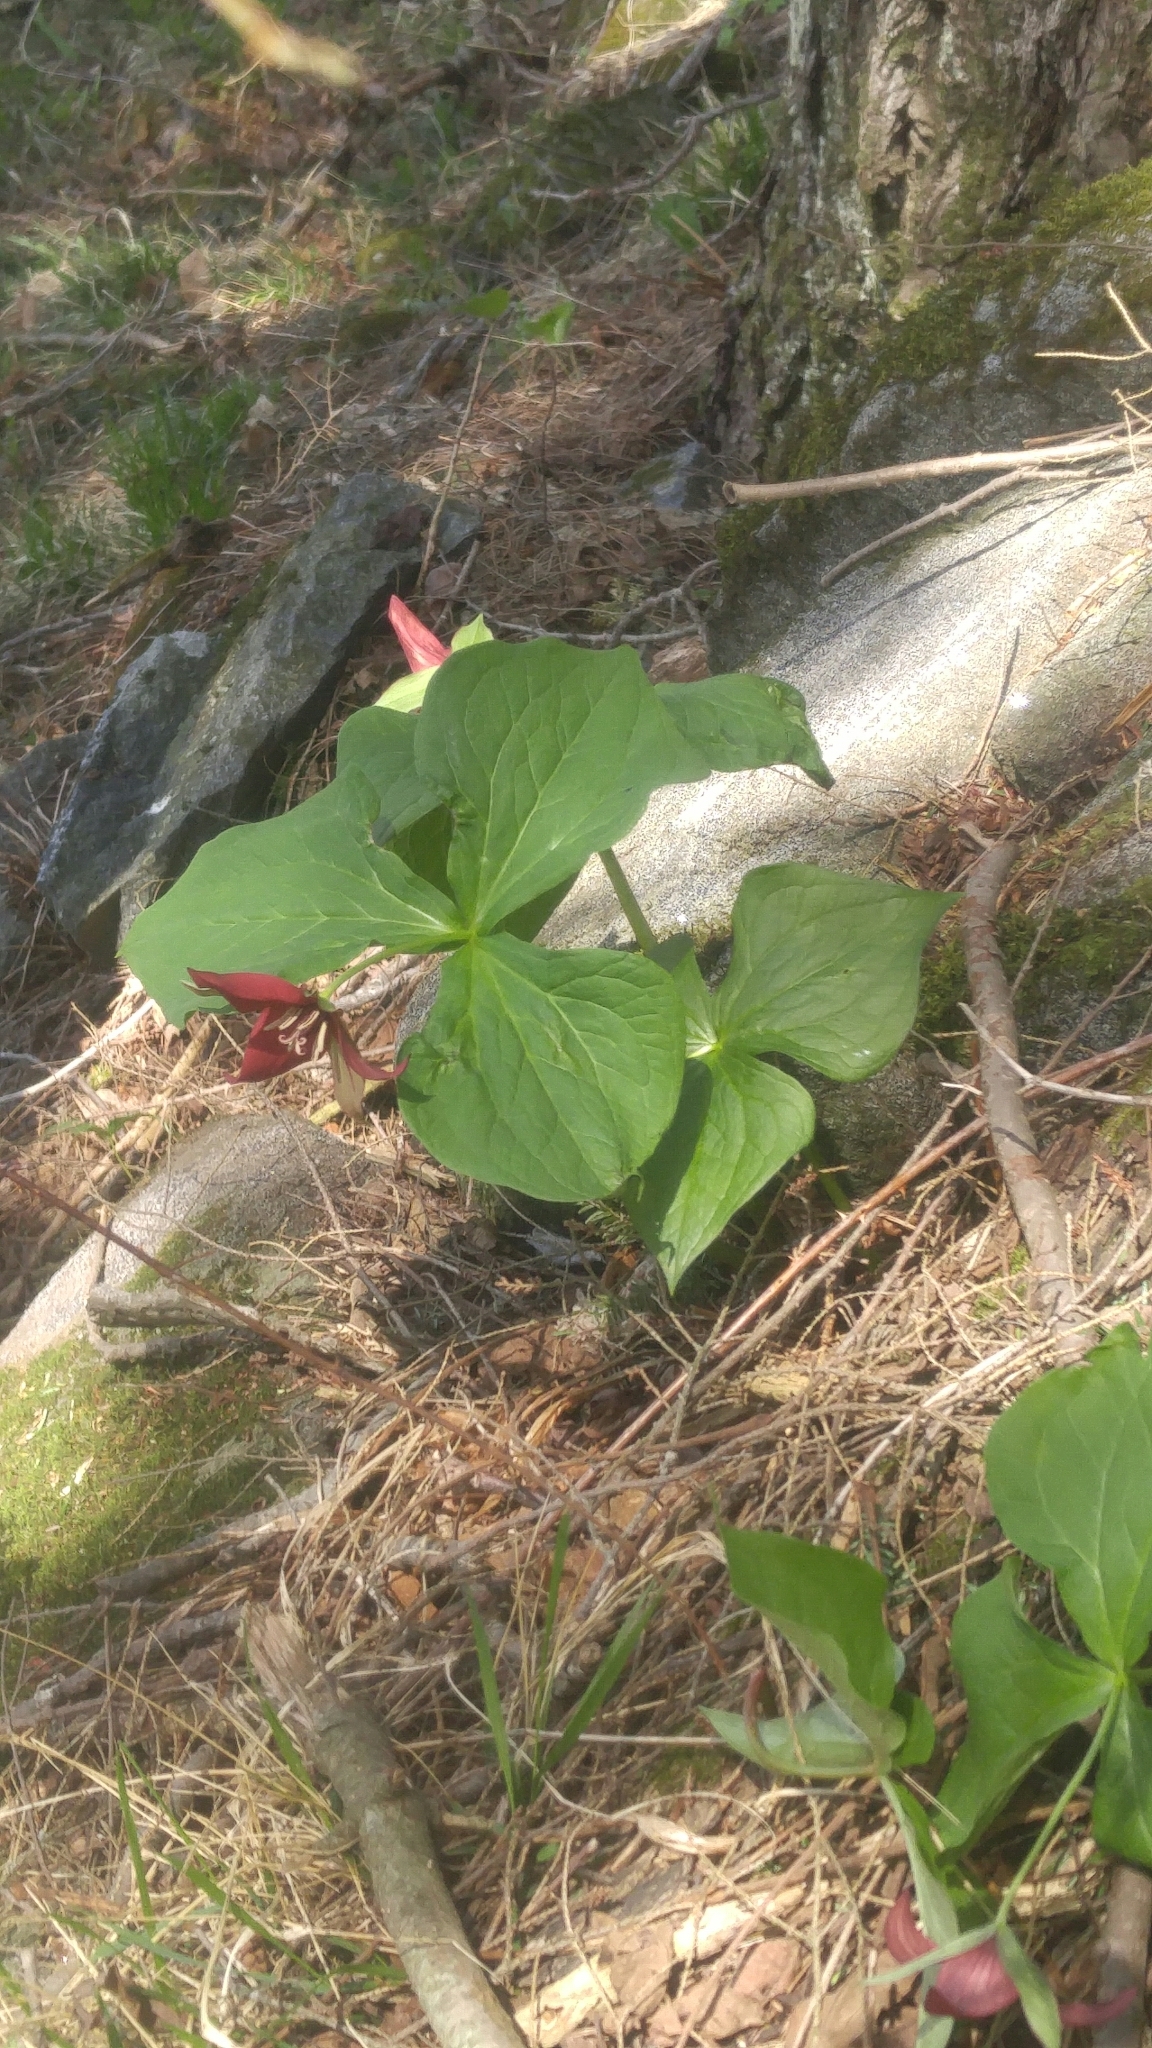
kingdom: Plantae
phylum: Tracheophyta
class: Liliopsida
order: Liliales
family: Melanthiaceae
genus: Trillium
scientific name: Trillium erectum
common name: Purple trillium
